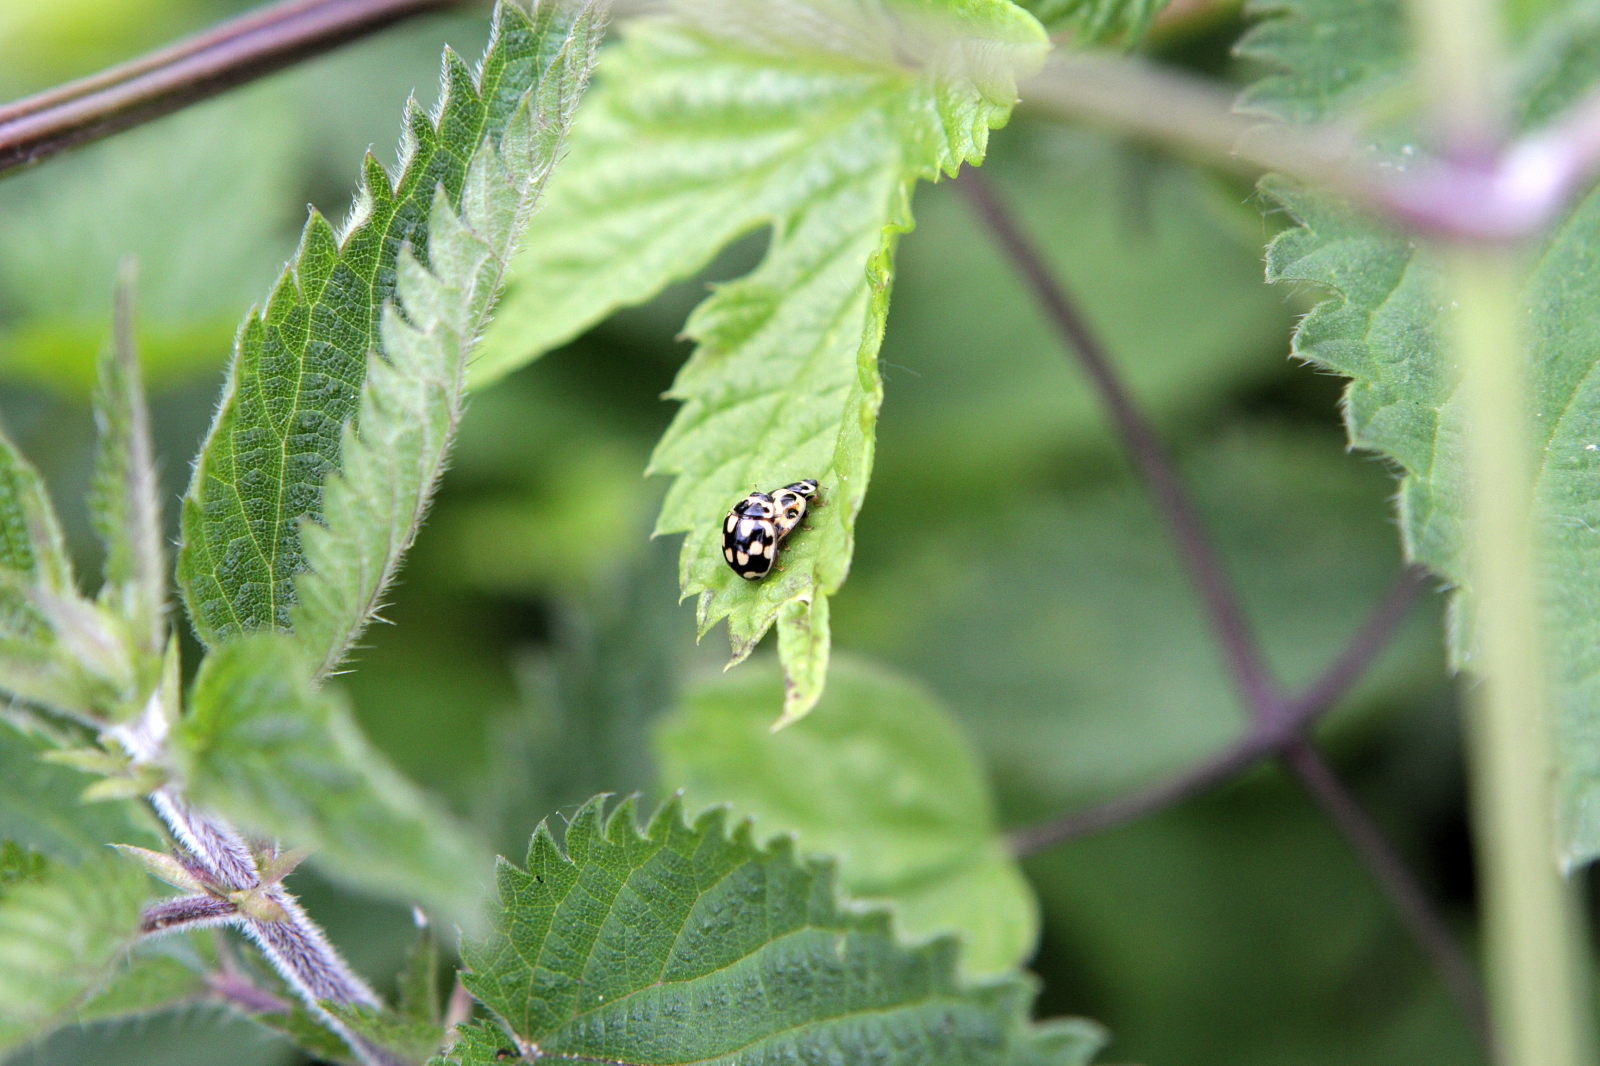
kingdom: Animalia
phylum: Arthropoda
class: Insecta
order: Coleoptera
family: Coccinellidae
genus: Propylaea
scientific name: Propylaea quatuordecimpunctata
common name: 14-spotted ladybird beetle
